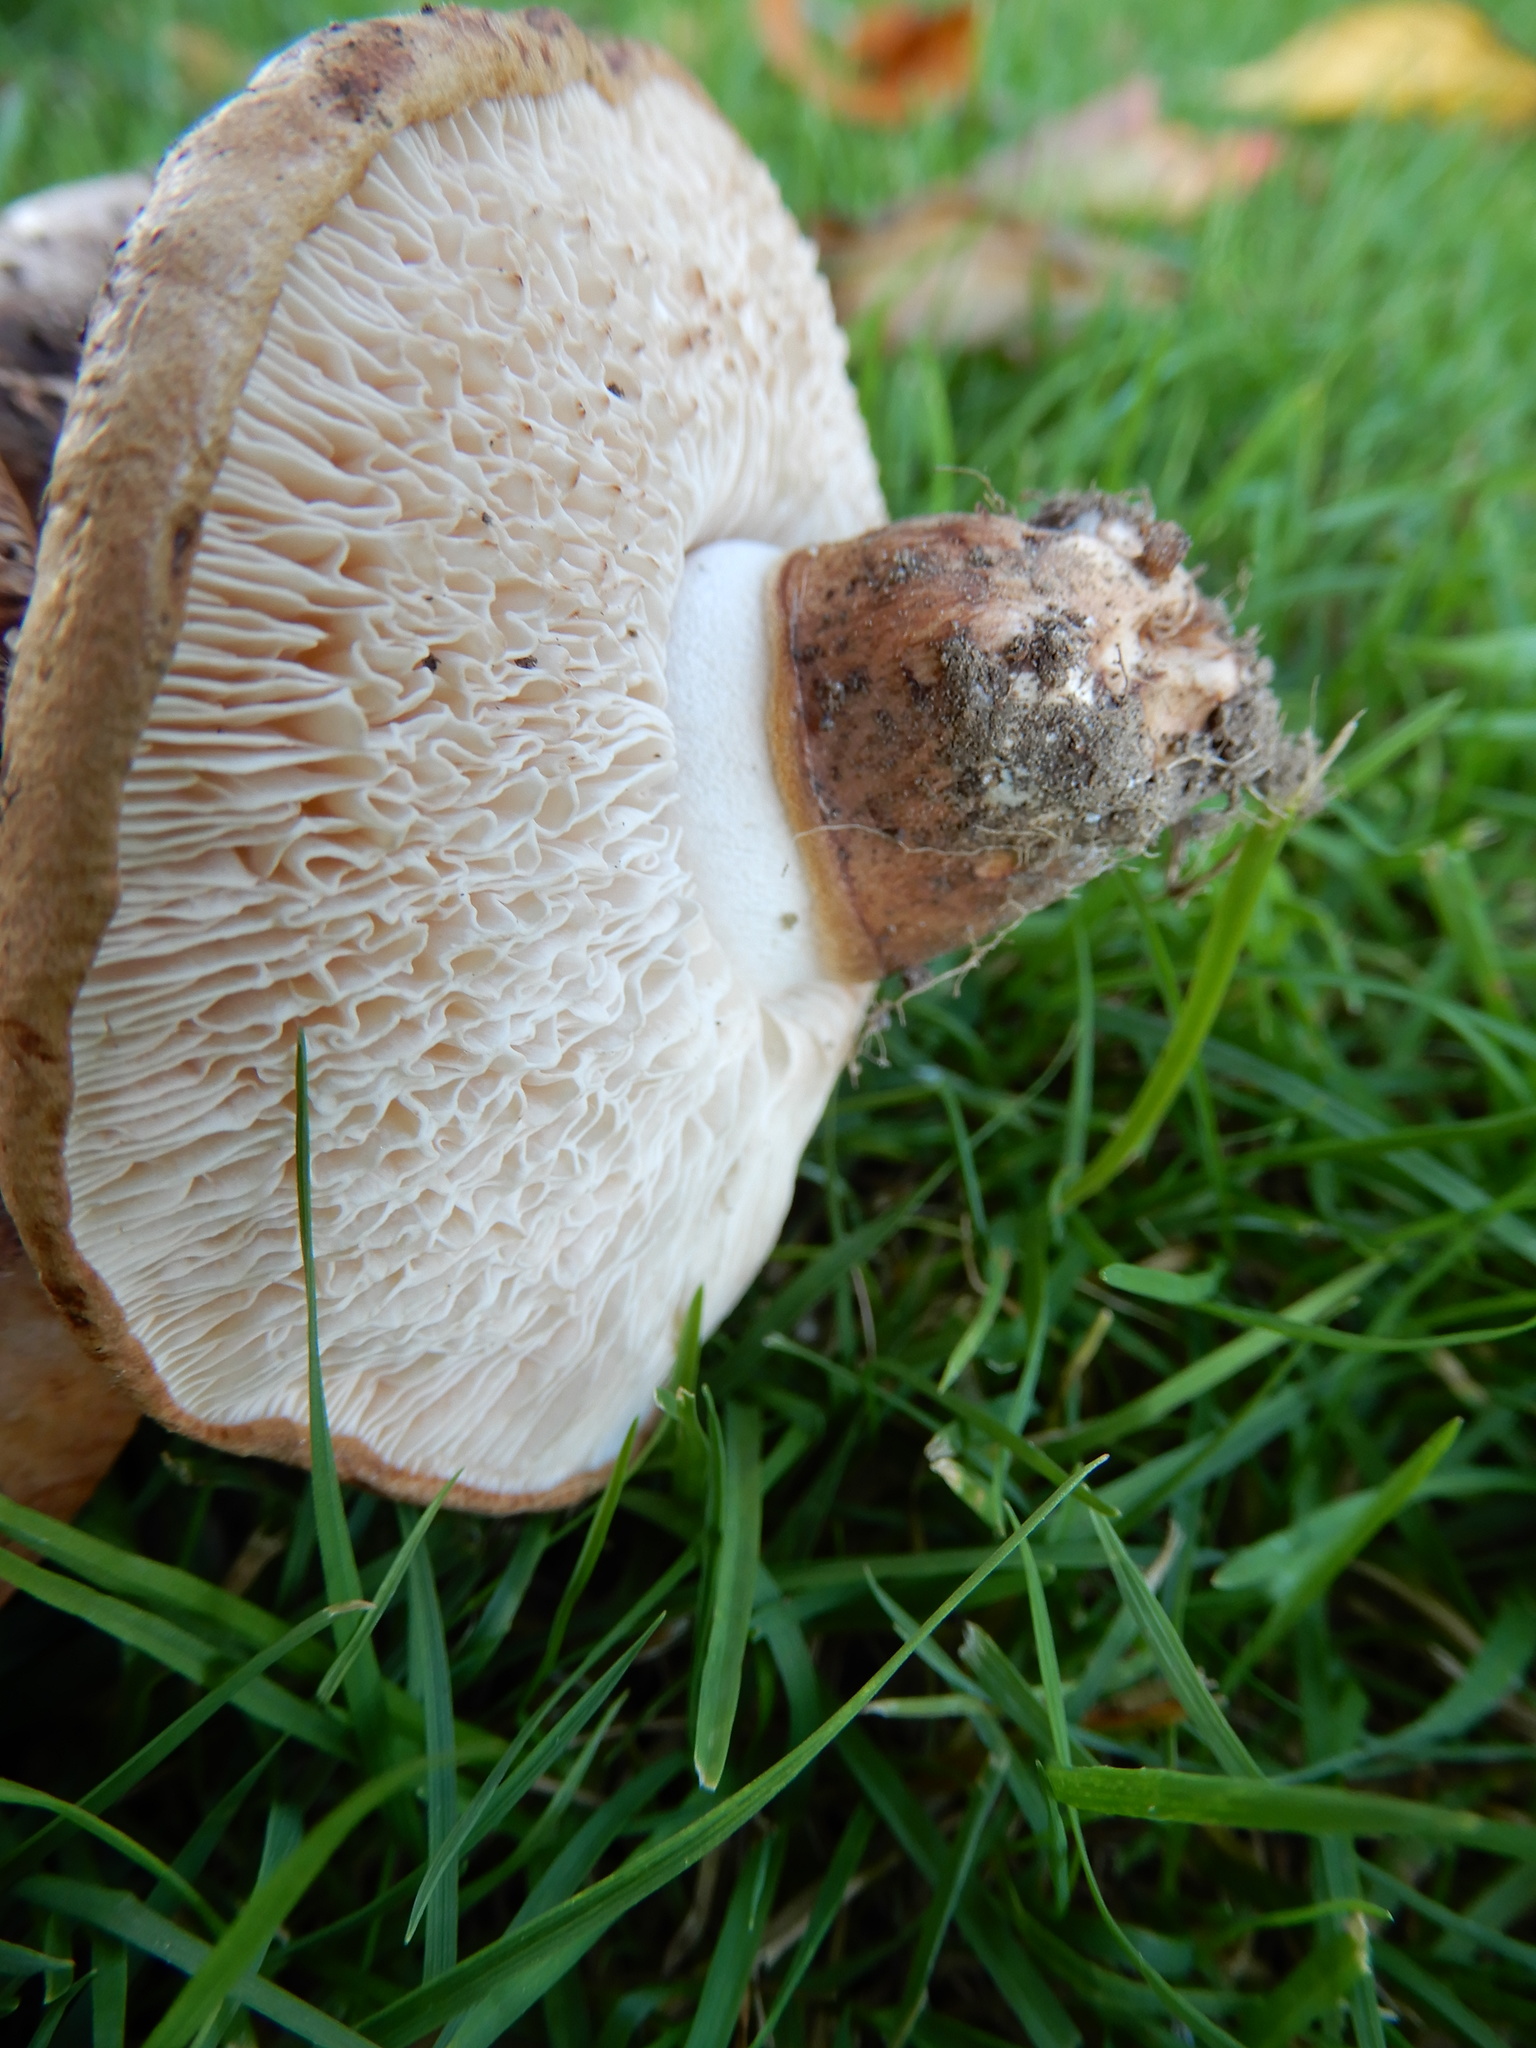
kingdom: Fungi
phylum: Basidiomycota
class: Agaricomycetes
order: Agaricales
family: Tricholomataceae
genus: Tricholoma
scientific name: Tricholoma batschii
